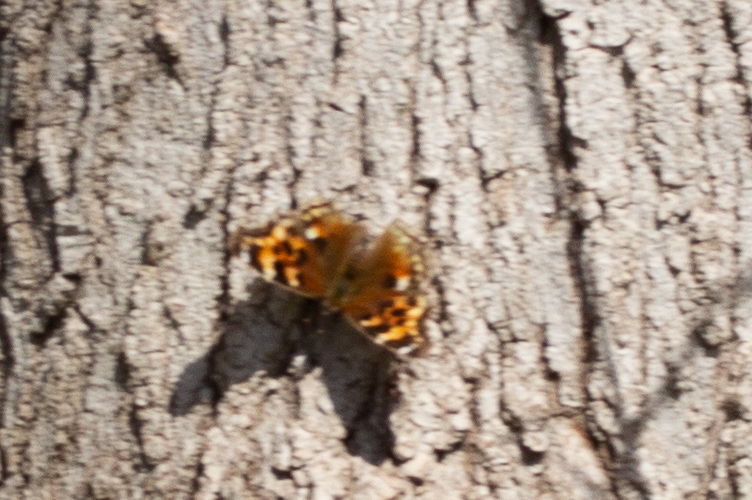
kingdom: Animalia
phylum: Arthropoda
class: Insecta
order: Lepidoptera
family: Nymphalidae
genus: Polygonia
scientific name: Polygonia vaualbum
